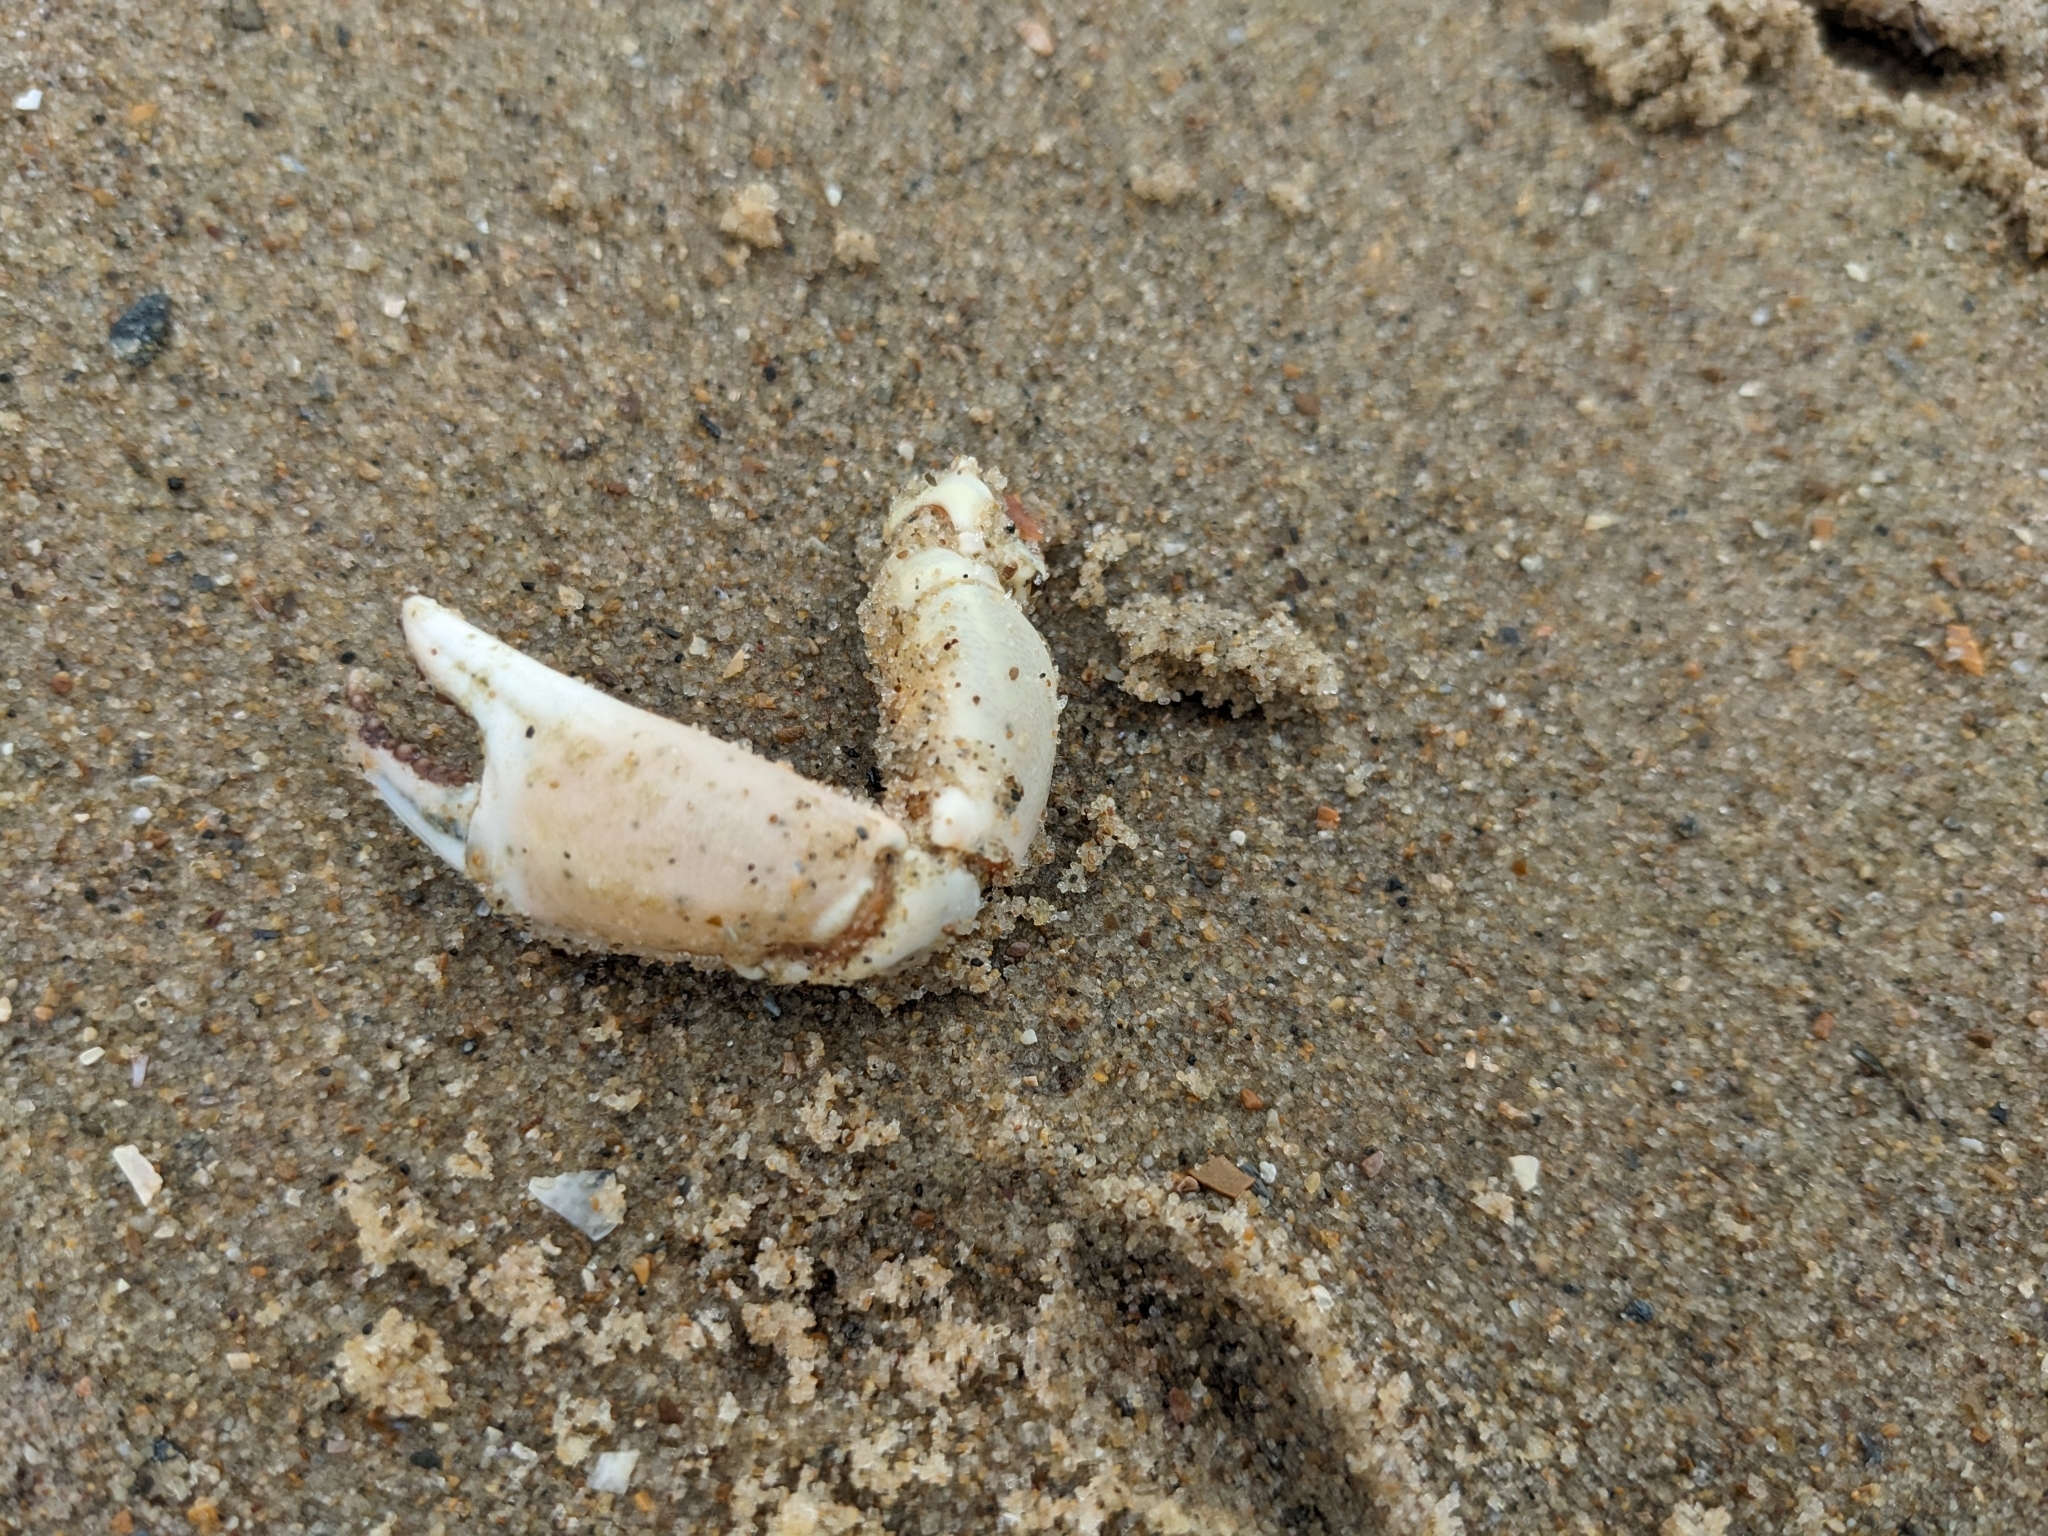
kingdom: Animalia
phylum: Arthropoda
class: Malacostraca
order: Decapoda
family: Carcinidae
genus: Carcinus
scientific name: Carcinus maenas
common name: European green crab
